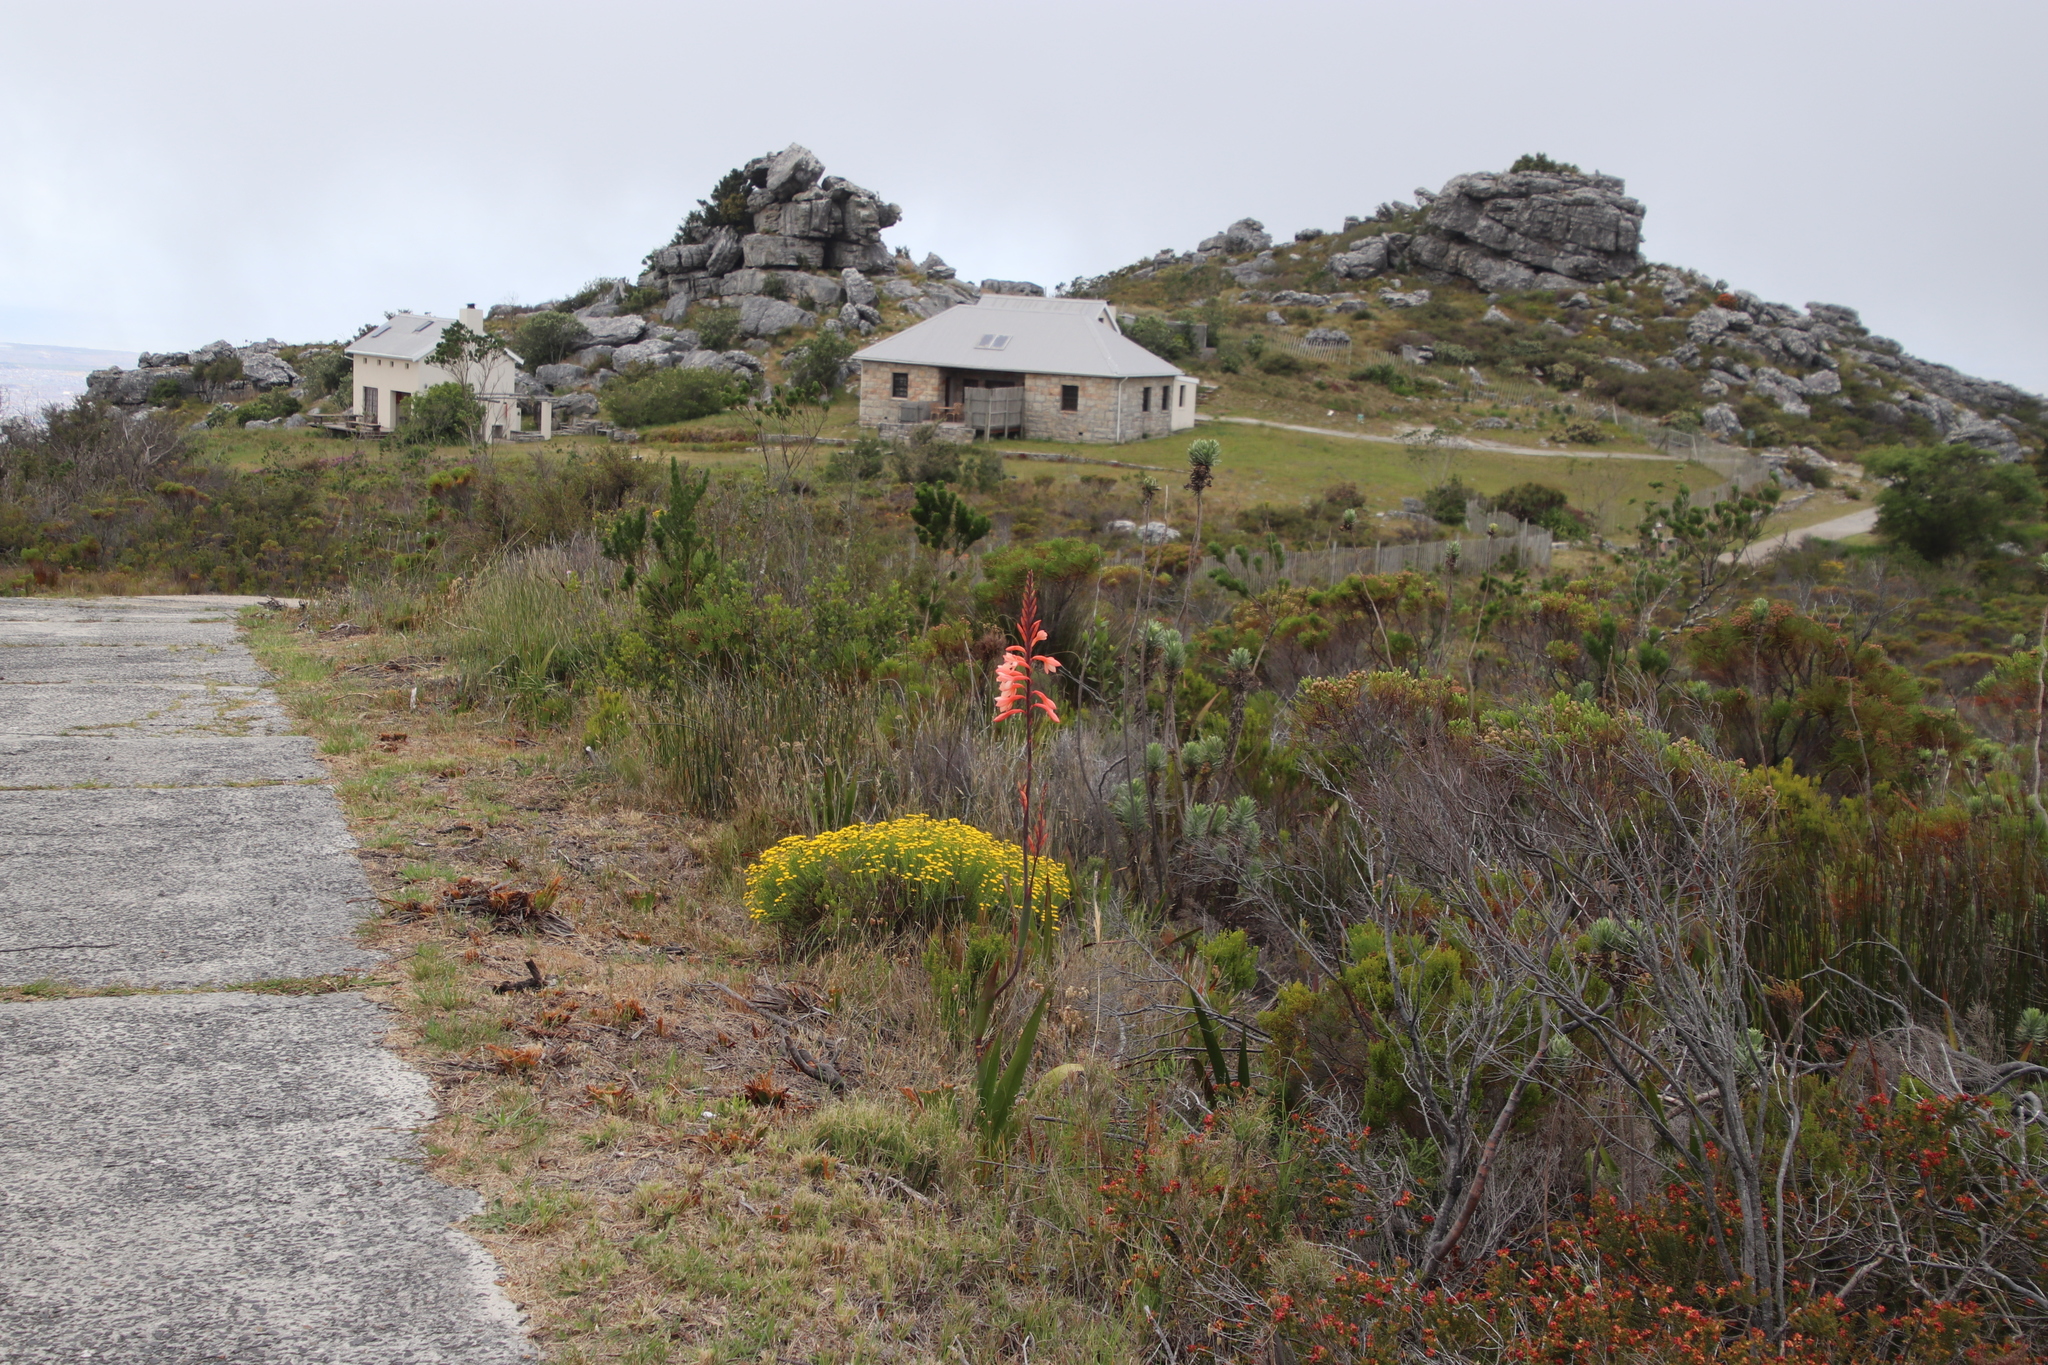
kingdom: Plantae
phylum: Tracheophyta
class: Liliopsida
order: Asparagales
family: Iridaceae
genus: Watsonia
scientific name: Watsonia tabularis
